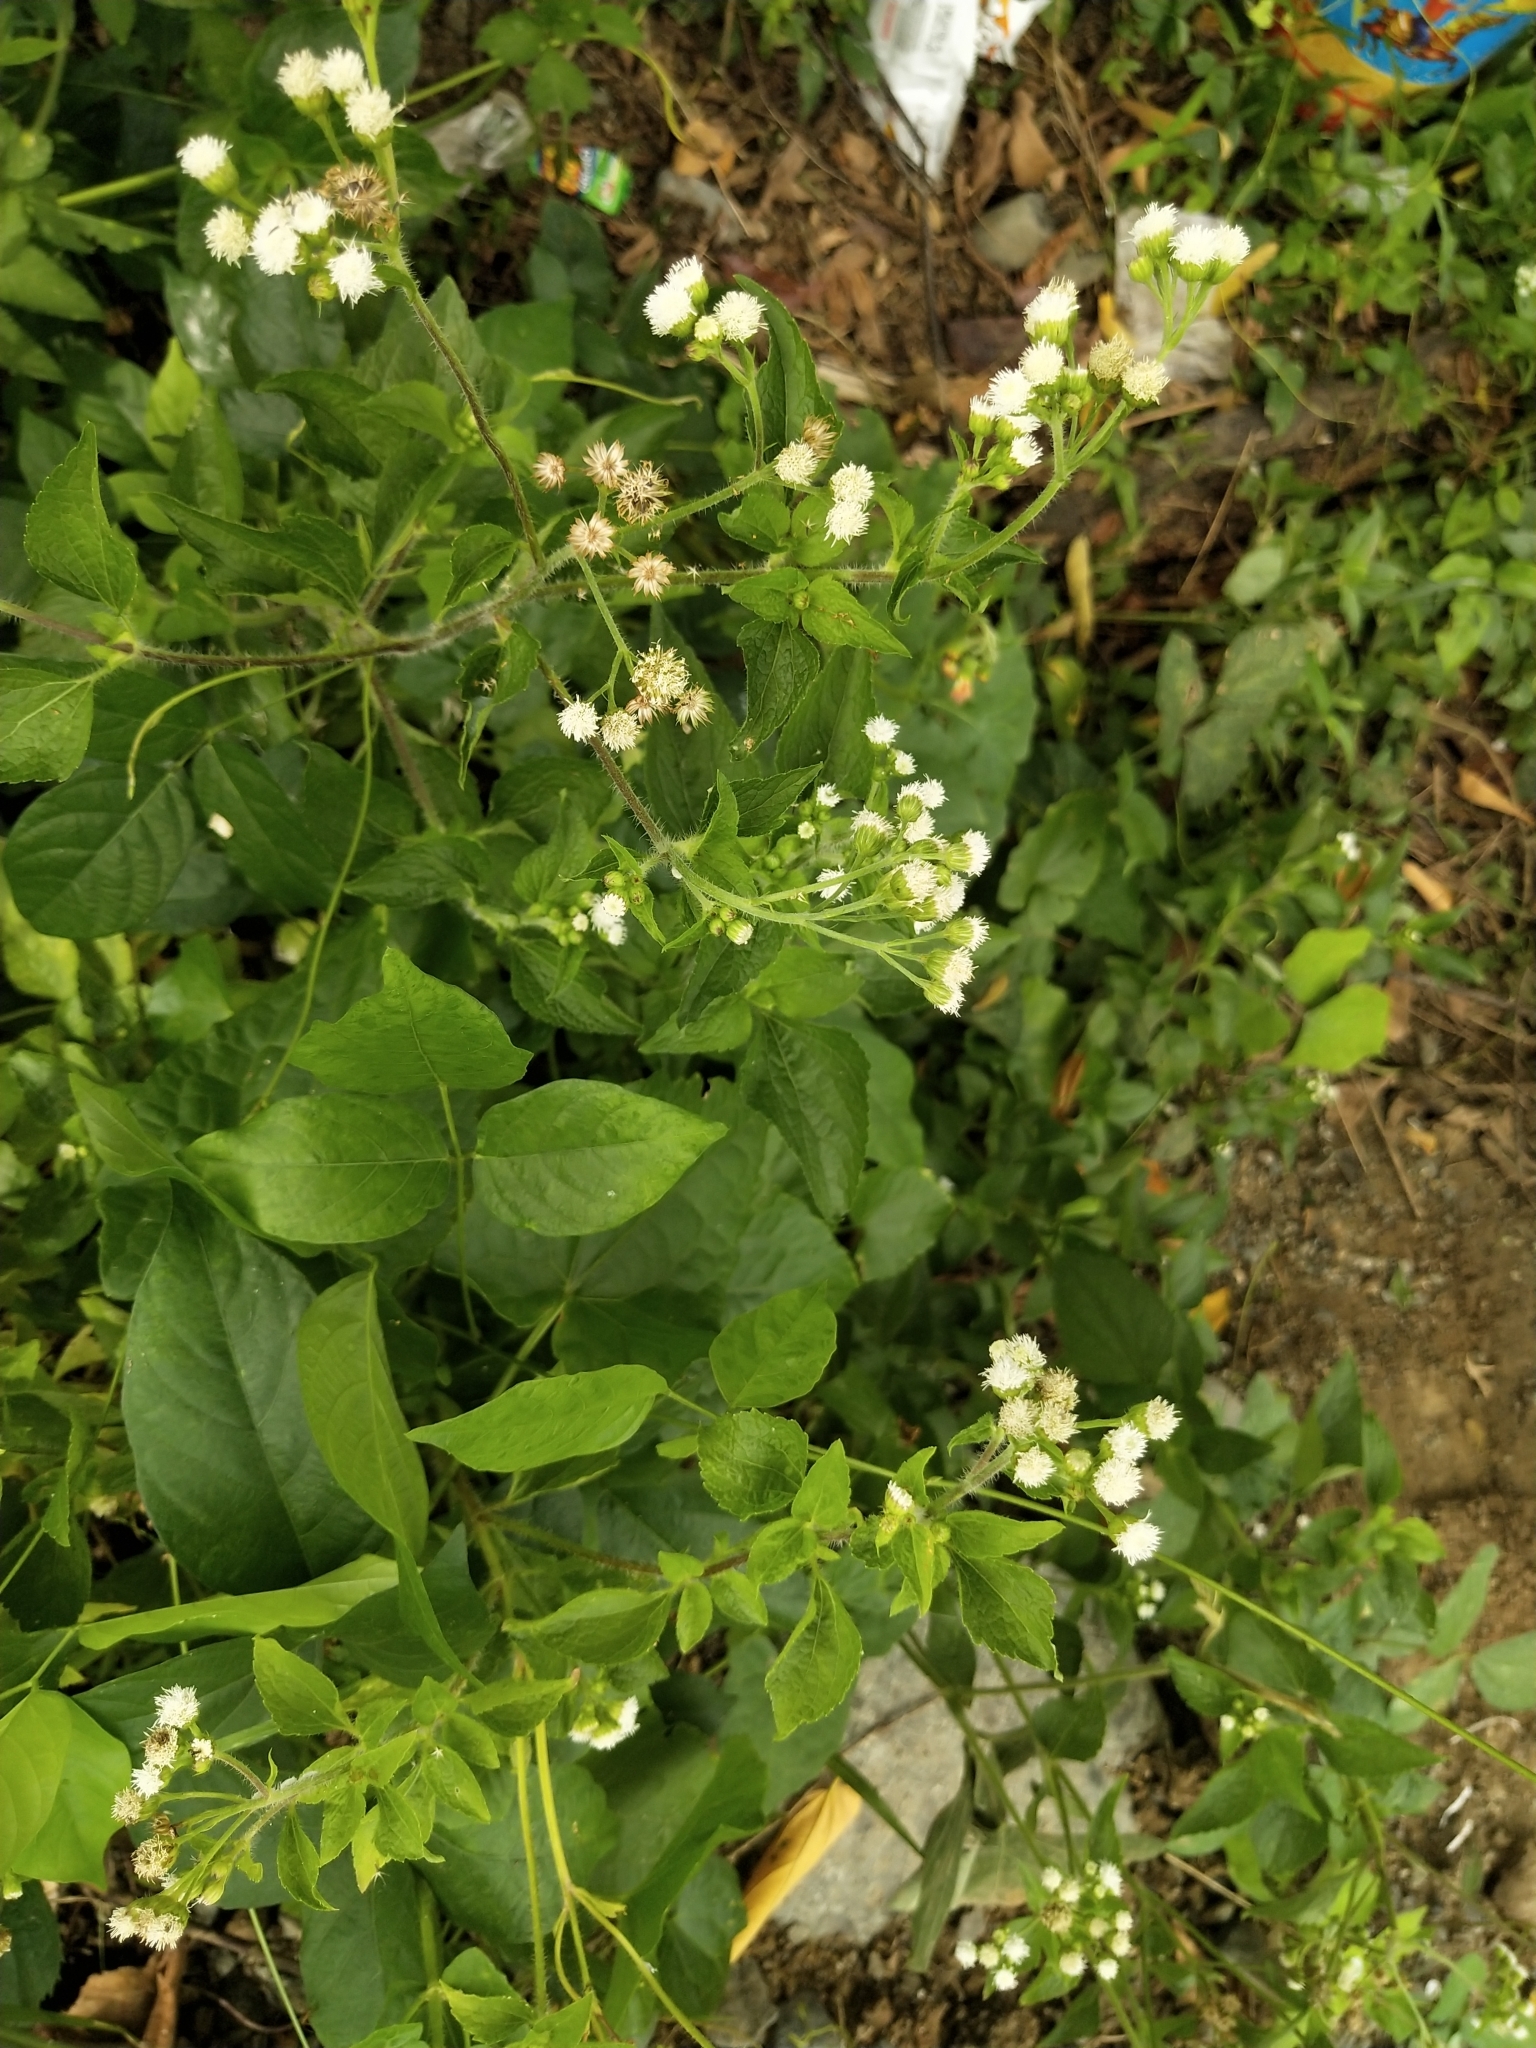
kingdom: Plantae
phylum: Tracheophyta
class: Magnoliopsida
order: Asterales
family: Asteraceae
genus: Ageratum
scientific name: Ageratum conyzoides
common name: Tropical whiteweed
